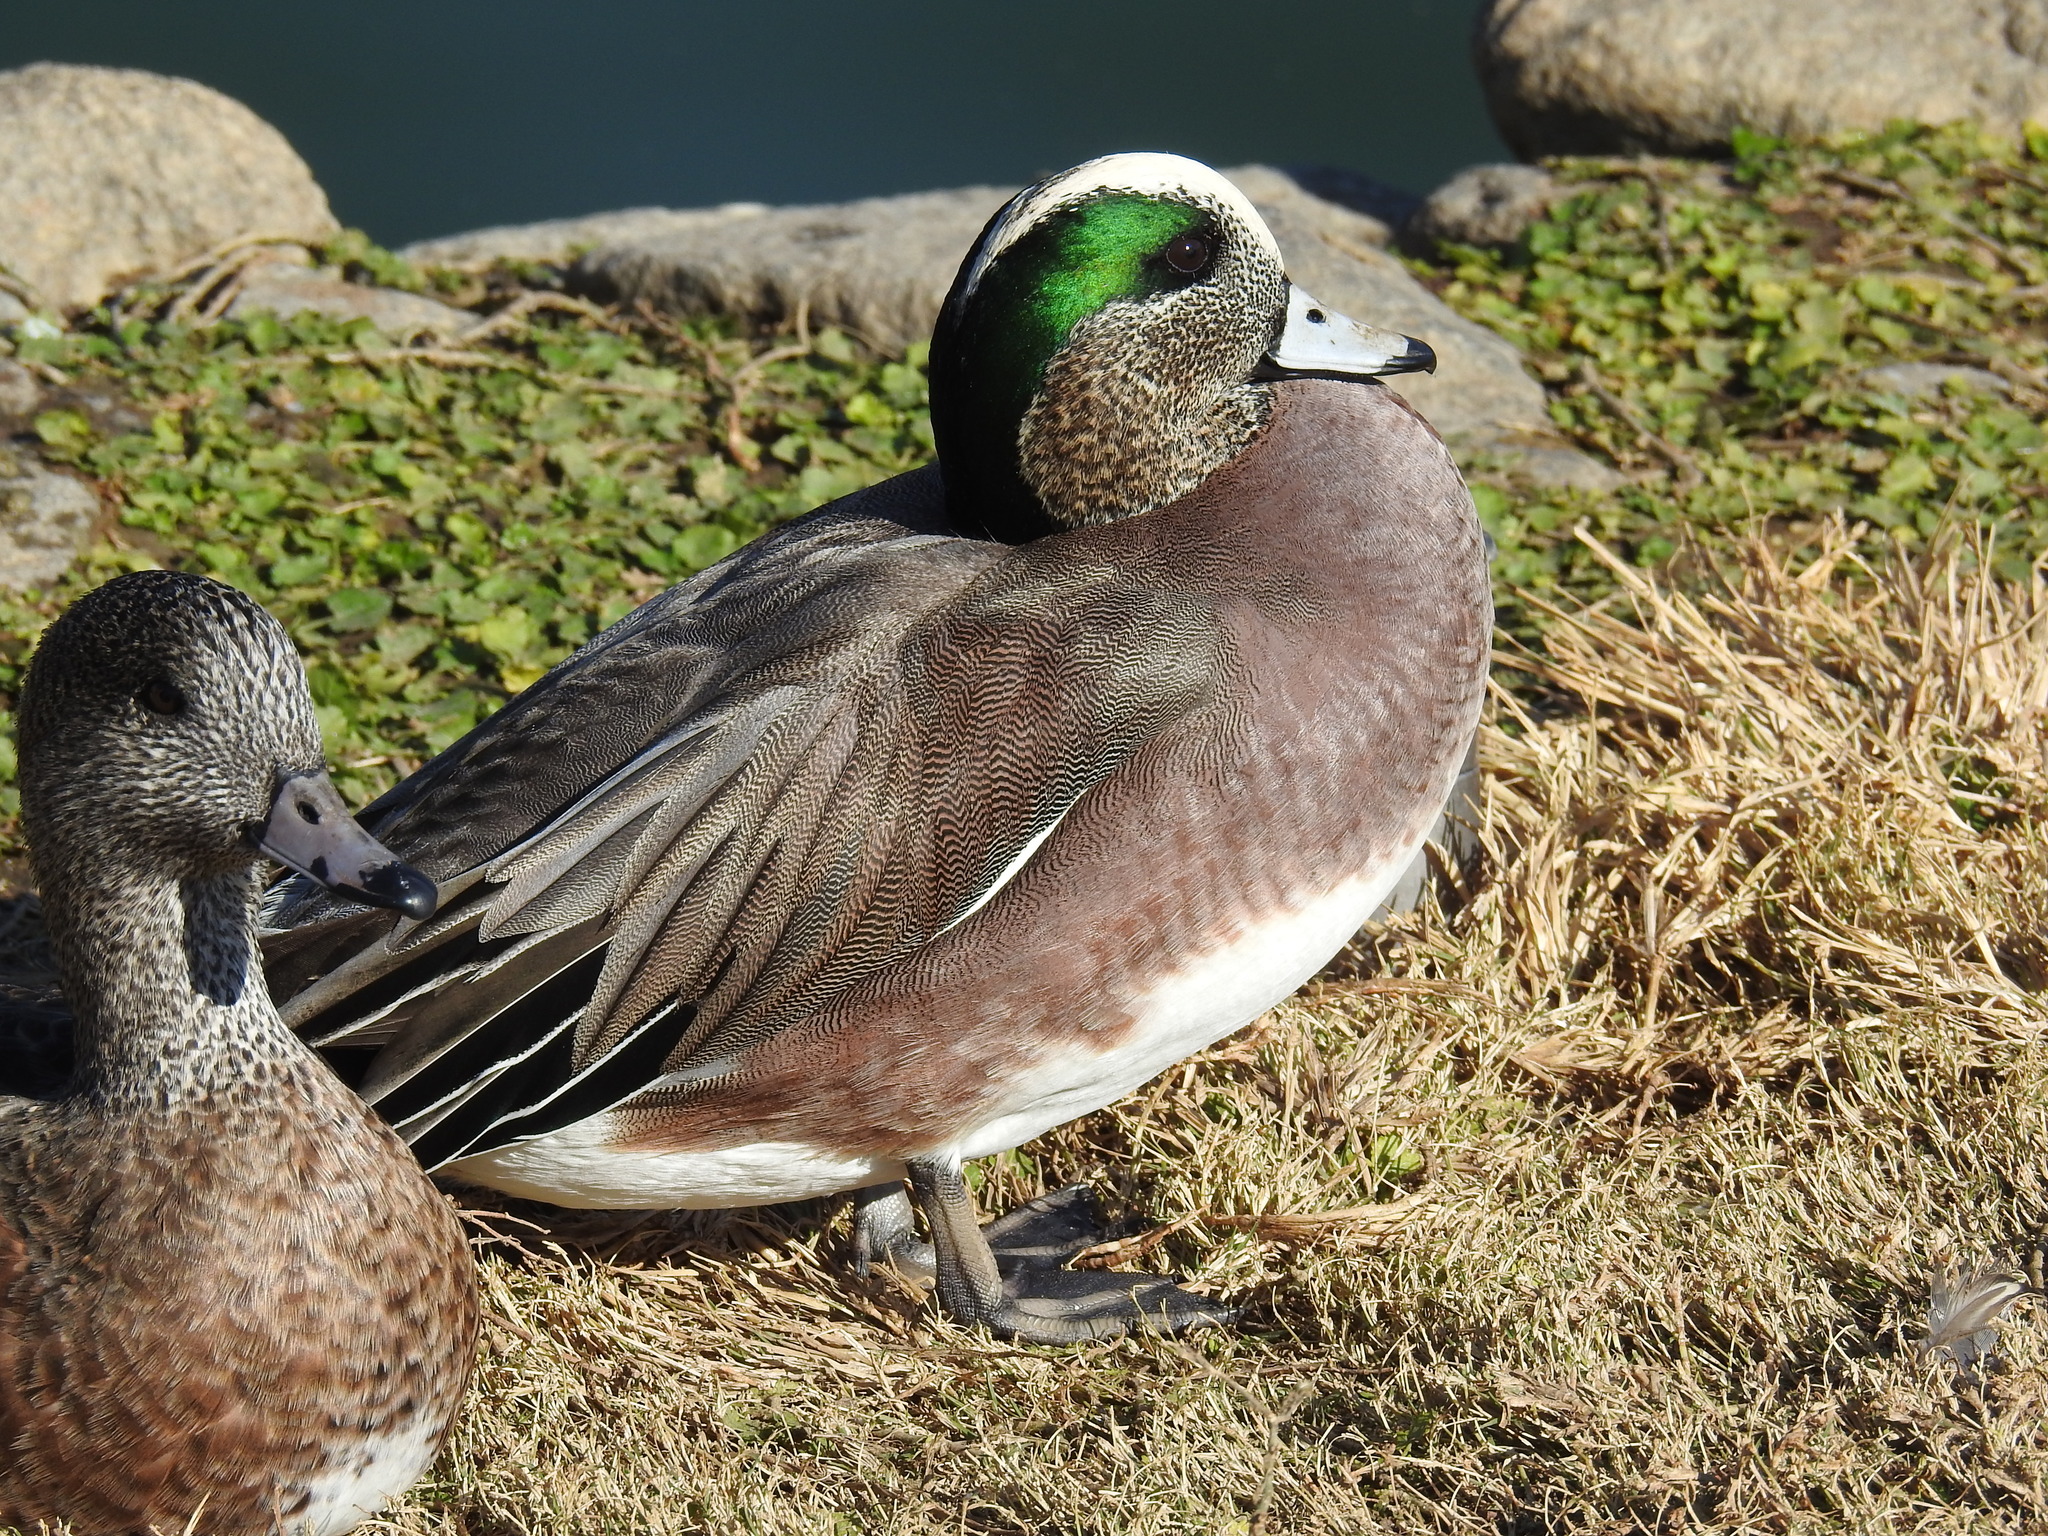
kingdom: Animalia
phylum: Chordata
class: Aves
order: Anseriformes
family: Anatidae
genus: Mareca
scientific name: Mareca americana
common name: American wigeon
